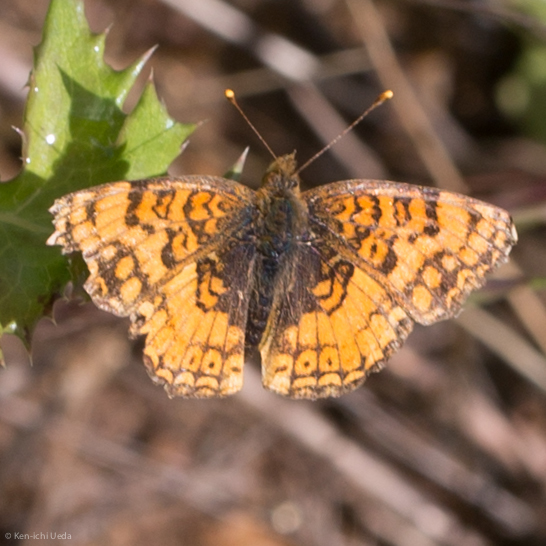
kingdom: Animalia
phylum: Arthropoda
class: Insecta
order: Lepidoptera
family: Nymphalidae
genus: Eresia
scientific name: Eresia aveyrona
